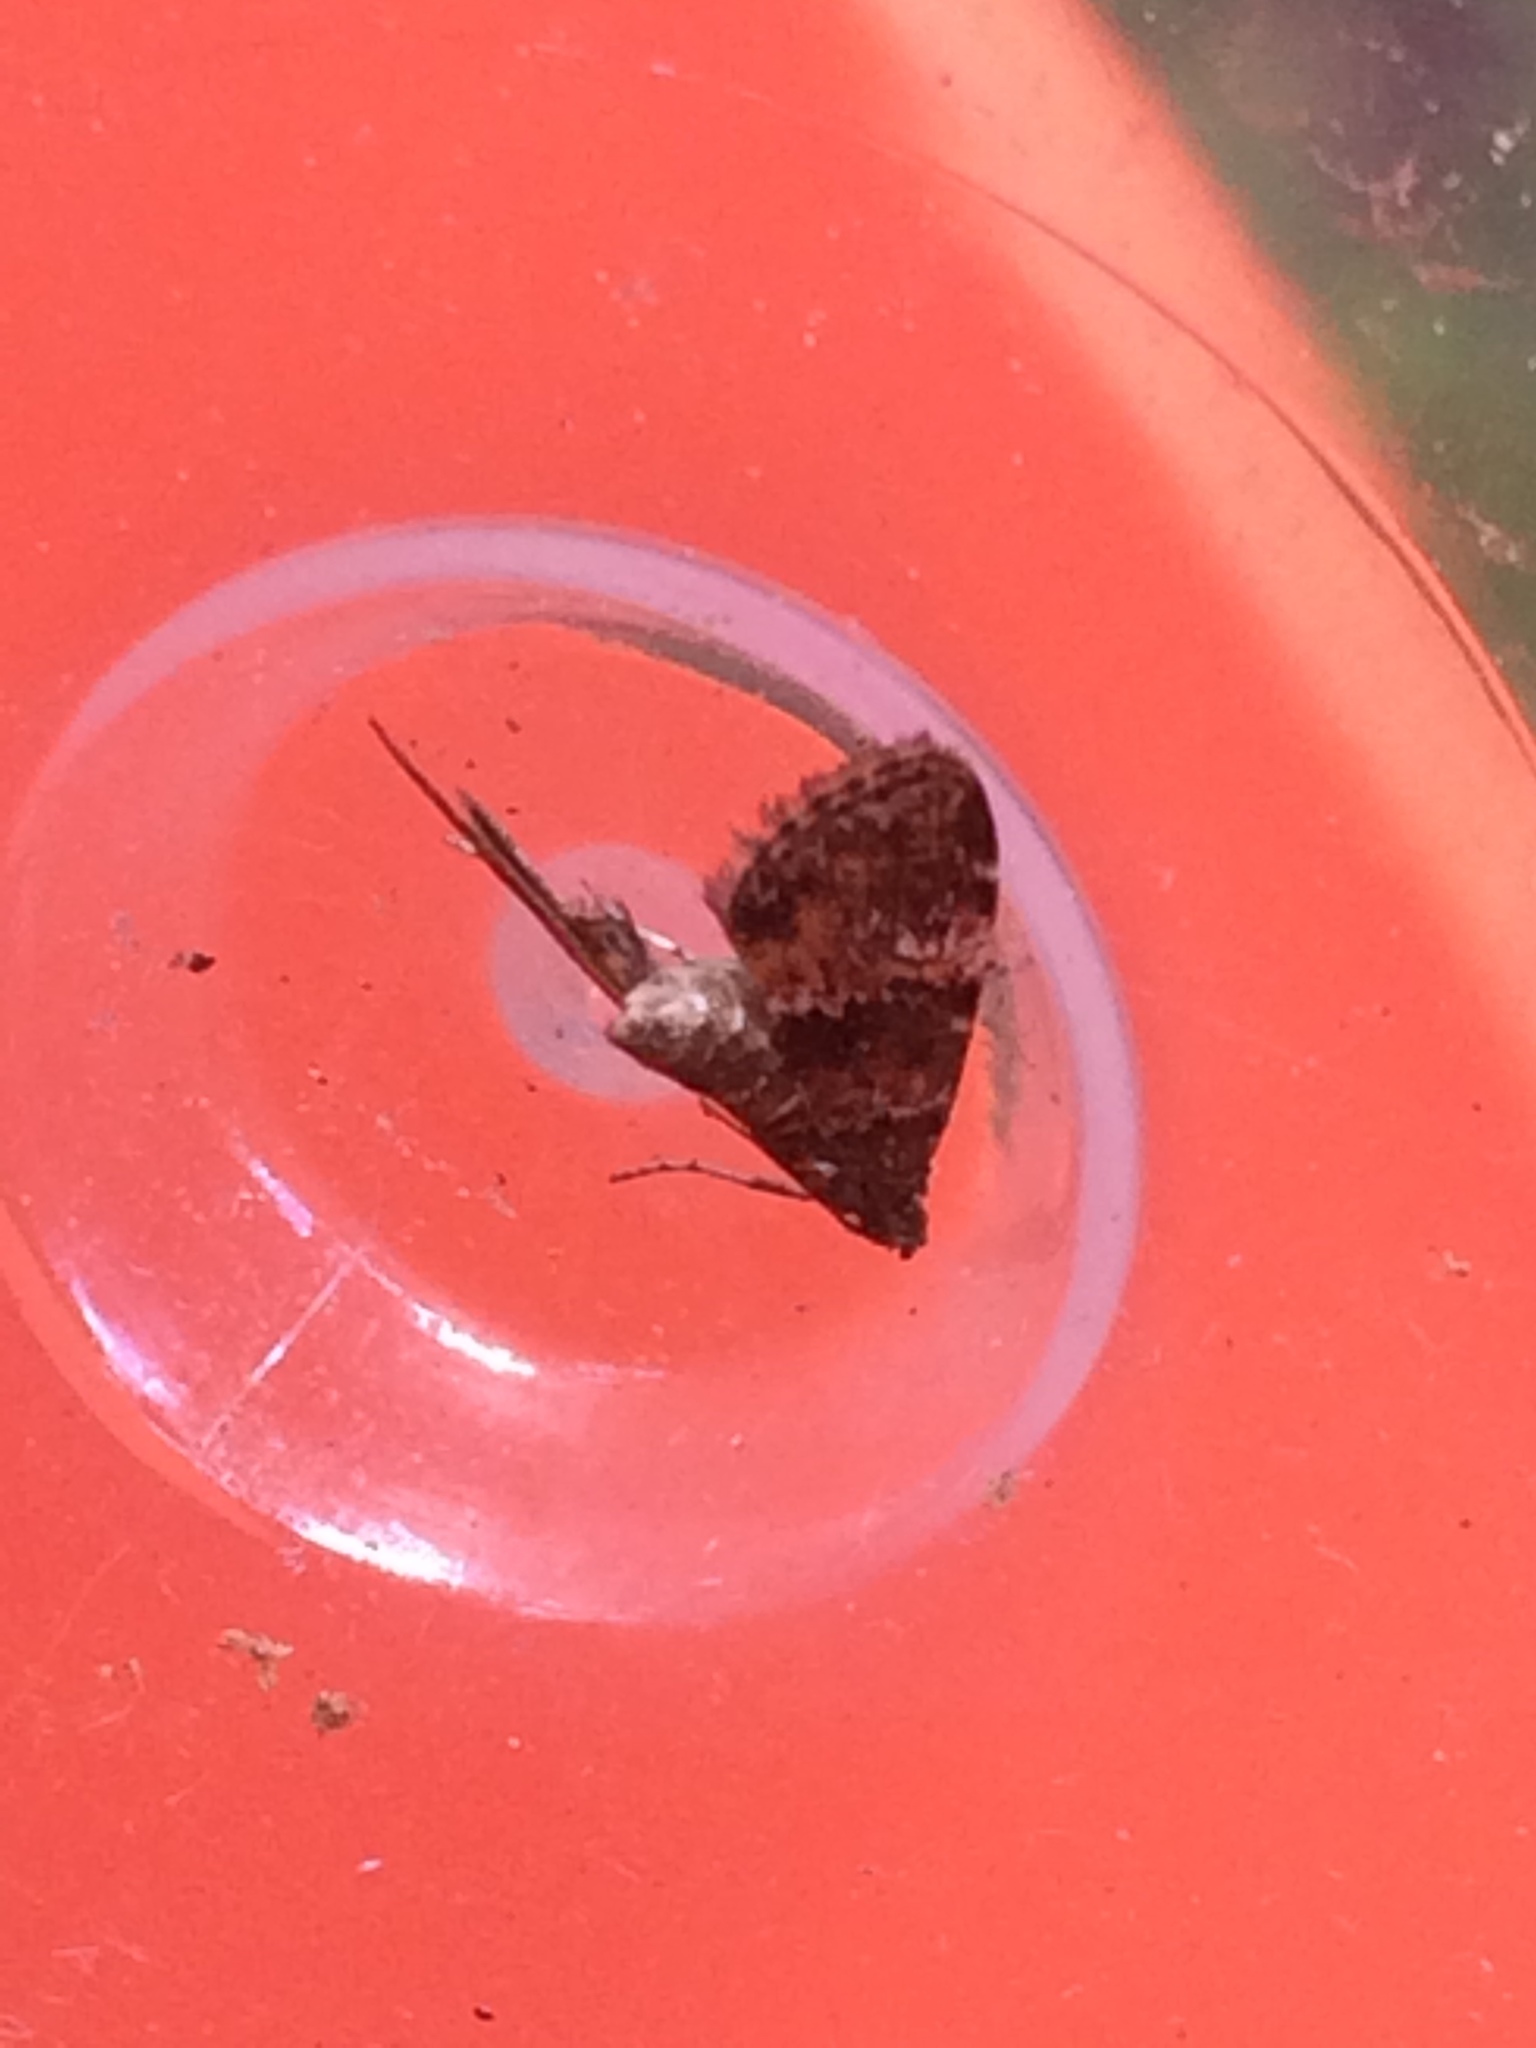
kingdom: Animalia
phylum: Arthropoda
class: Insecta
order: Lepidoptera
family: Crambidae
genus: Elophila
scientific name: Elophila obliteralis
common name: Waterlily leafcutter moth
